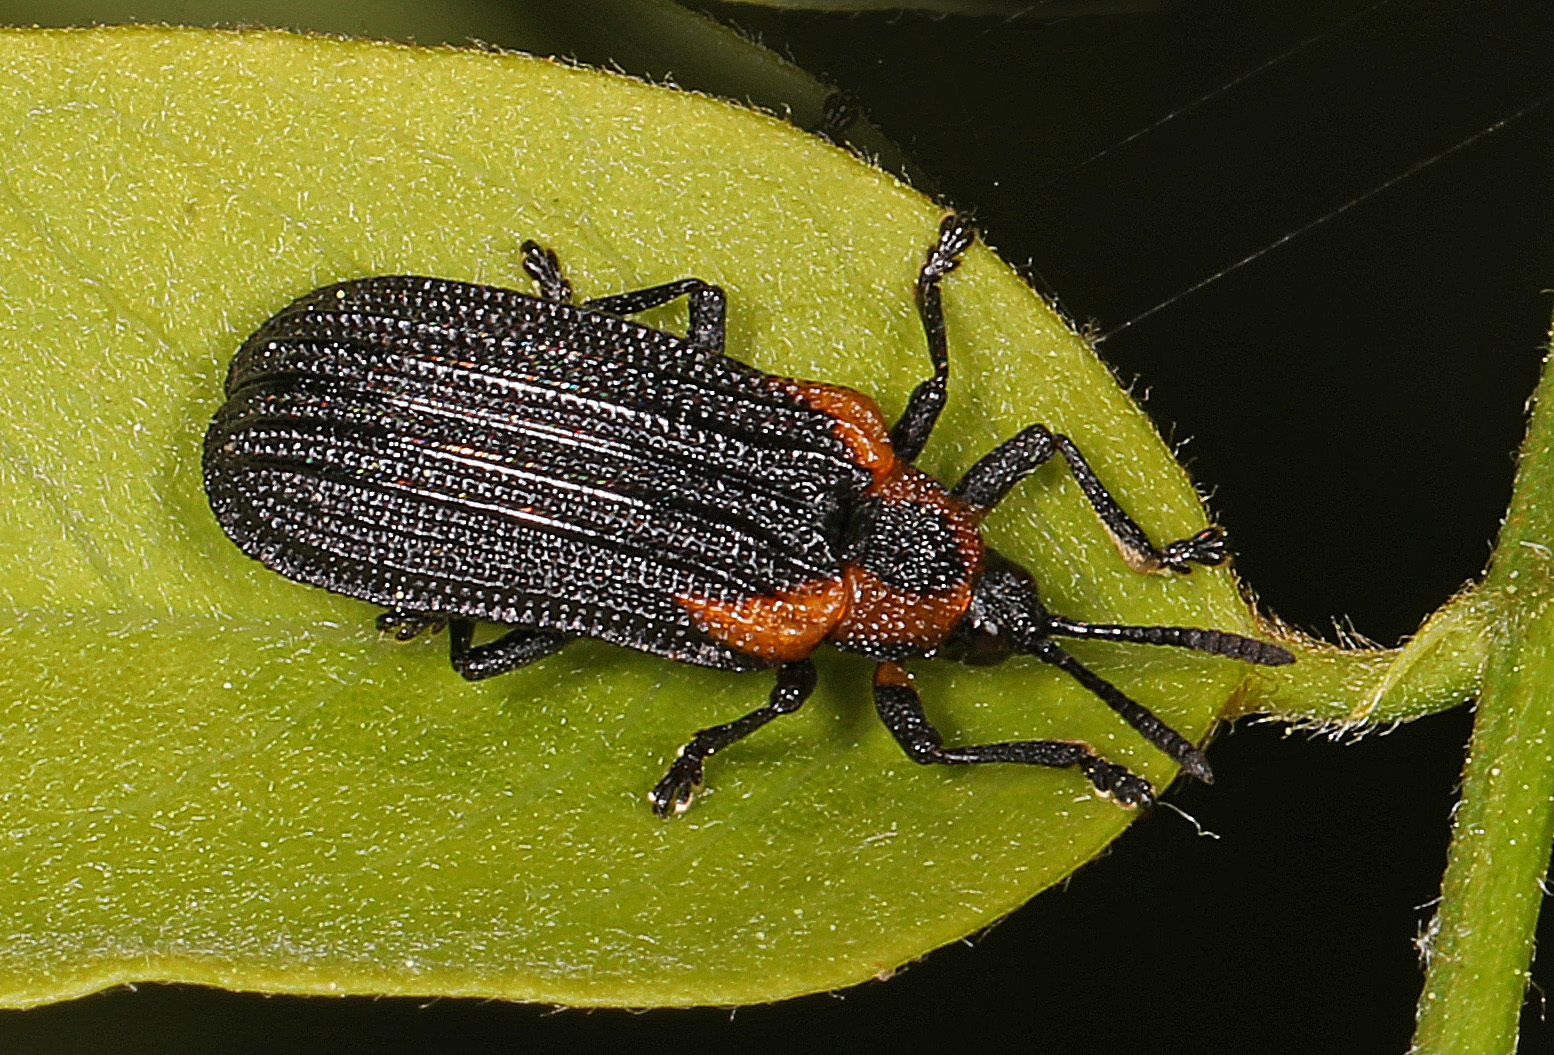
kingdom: Animalia
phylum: Arthropoda
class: Insecta
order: Coleoptera
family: Chrysomelidae
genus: Odontota
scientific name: Odontota scapularis
